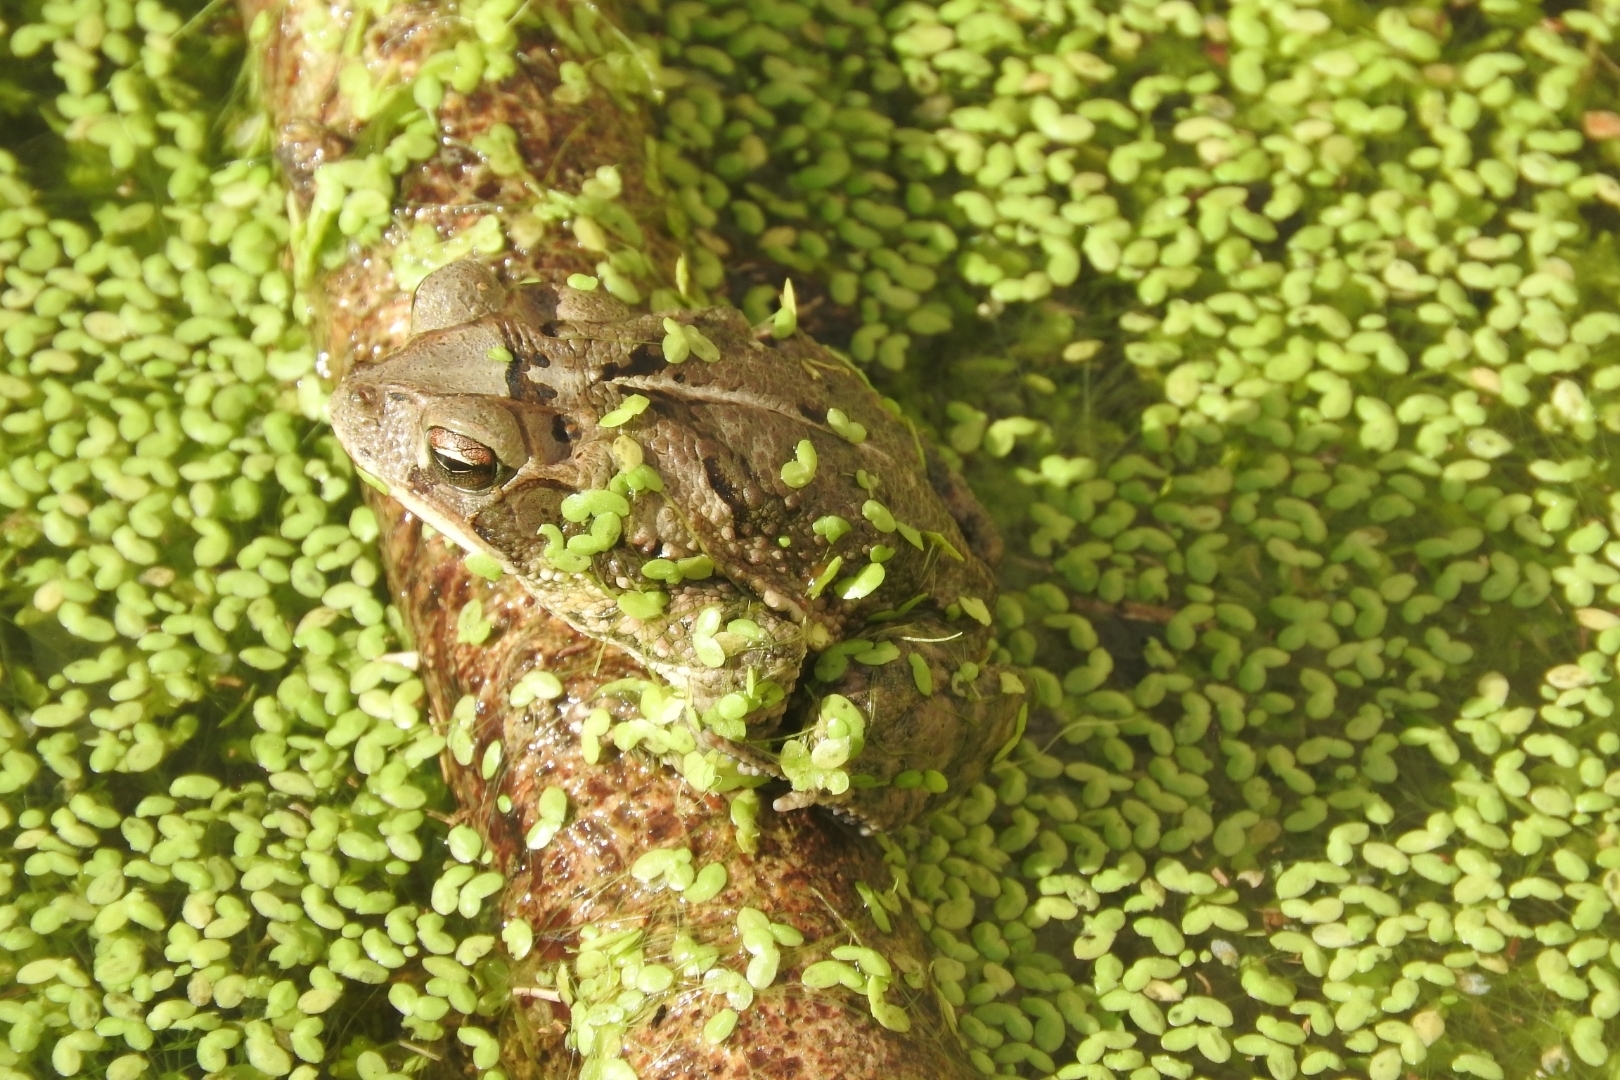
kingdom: Animalia
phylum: Chordata
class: Amphibia
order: Anura
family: Bufonidae
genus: Incilius
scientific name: Incilius valliceps
